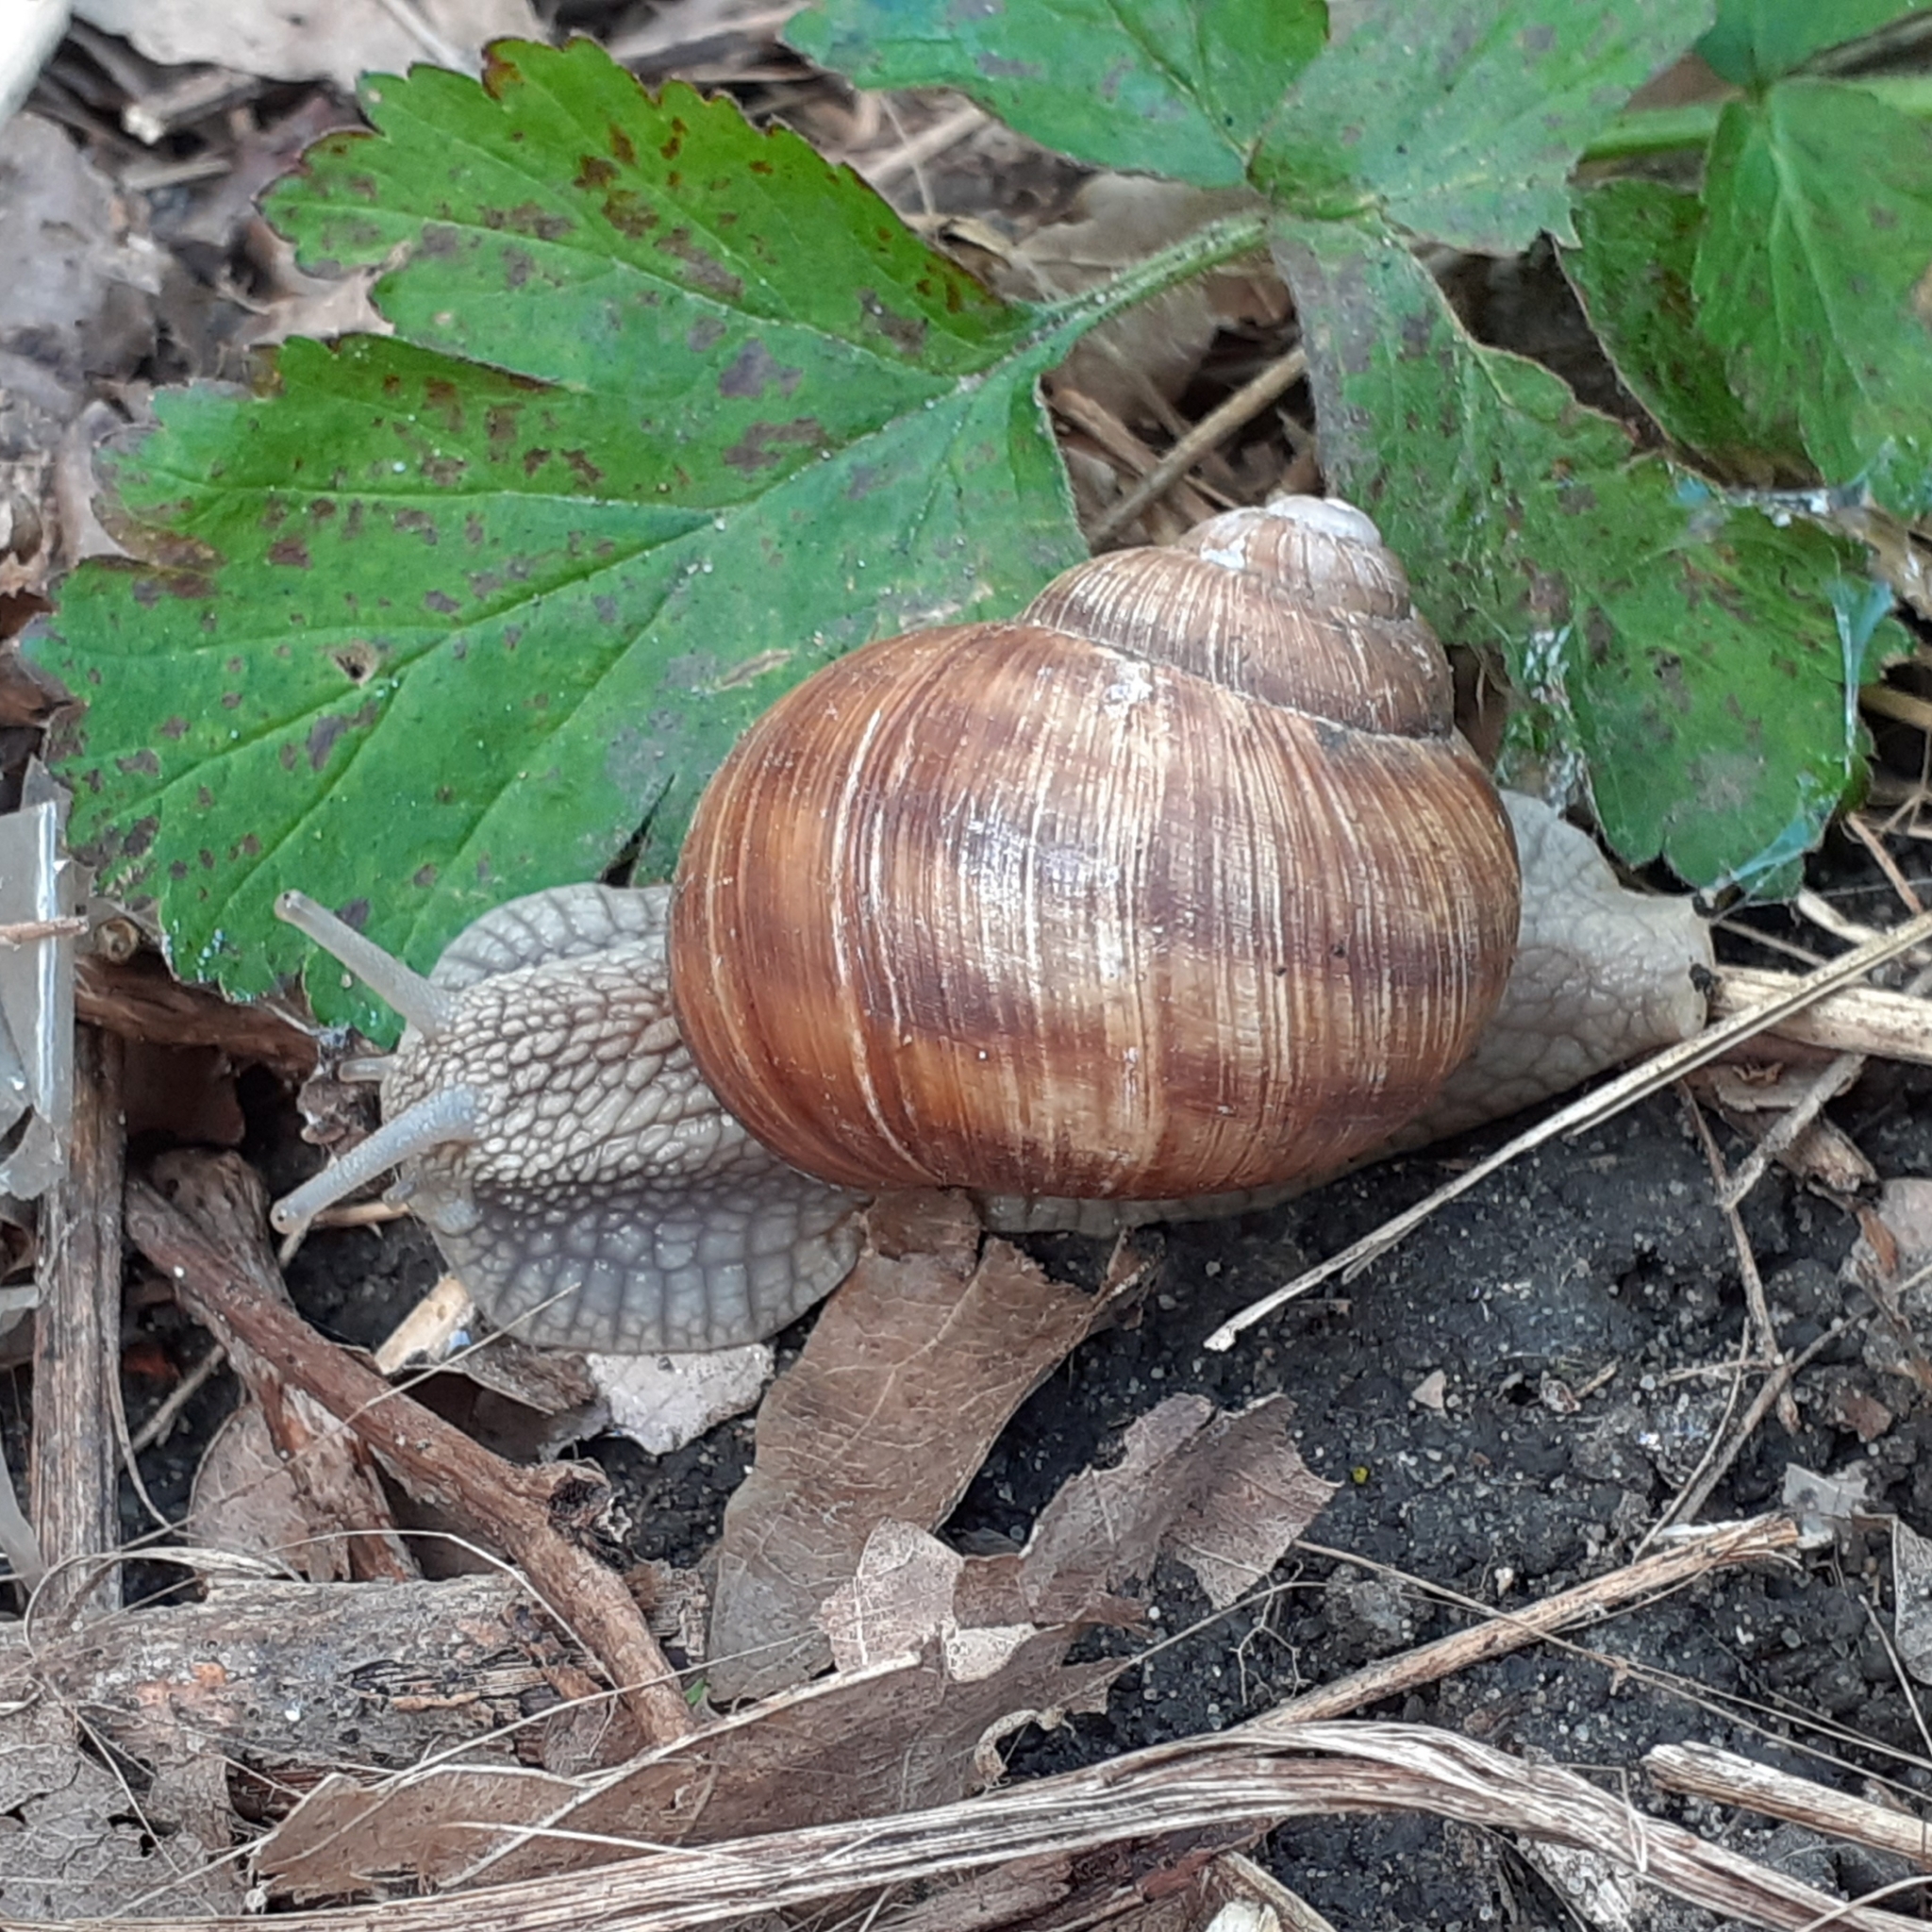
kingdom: Animalia
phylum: Mollusca
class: Gastropoda
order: Stylommatophora
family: Helicidae
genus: Helix
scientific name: Helix pomatia
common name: Roman snail
